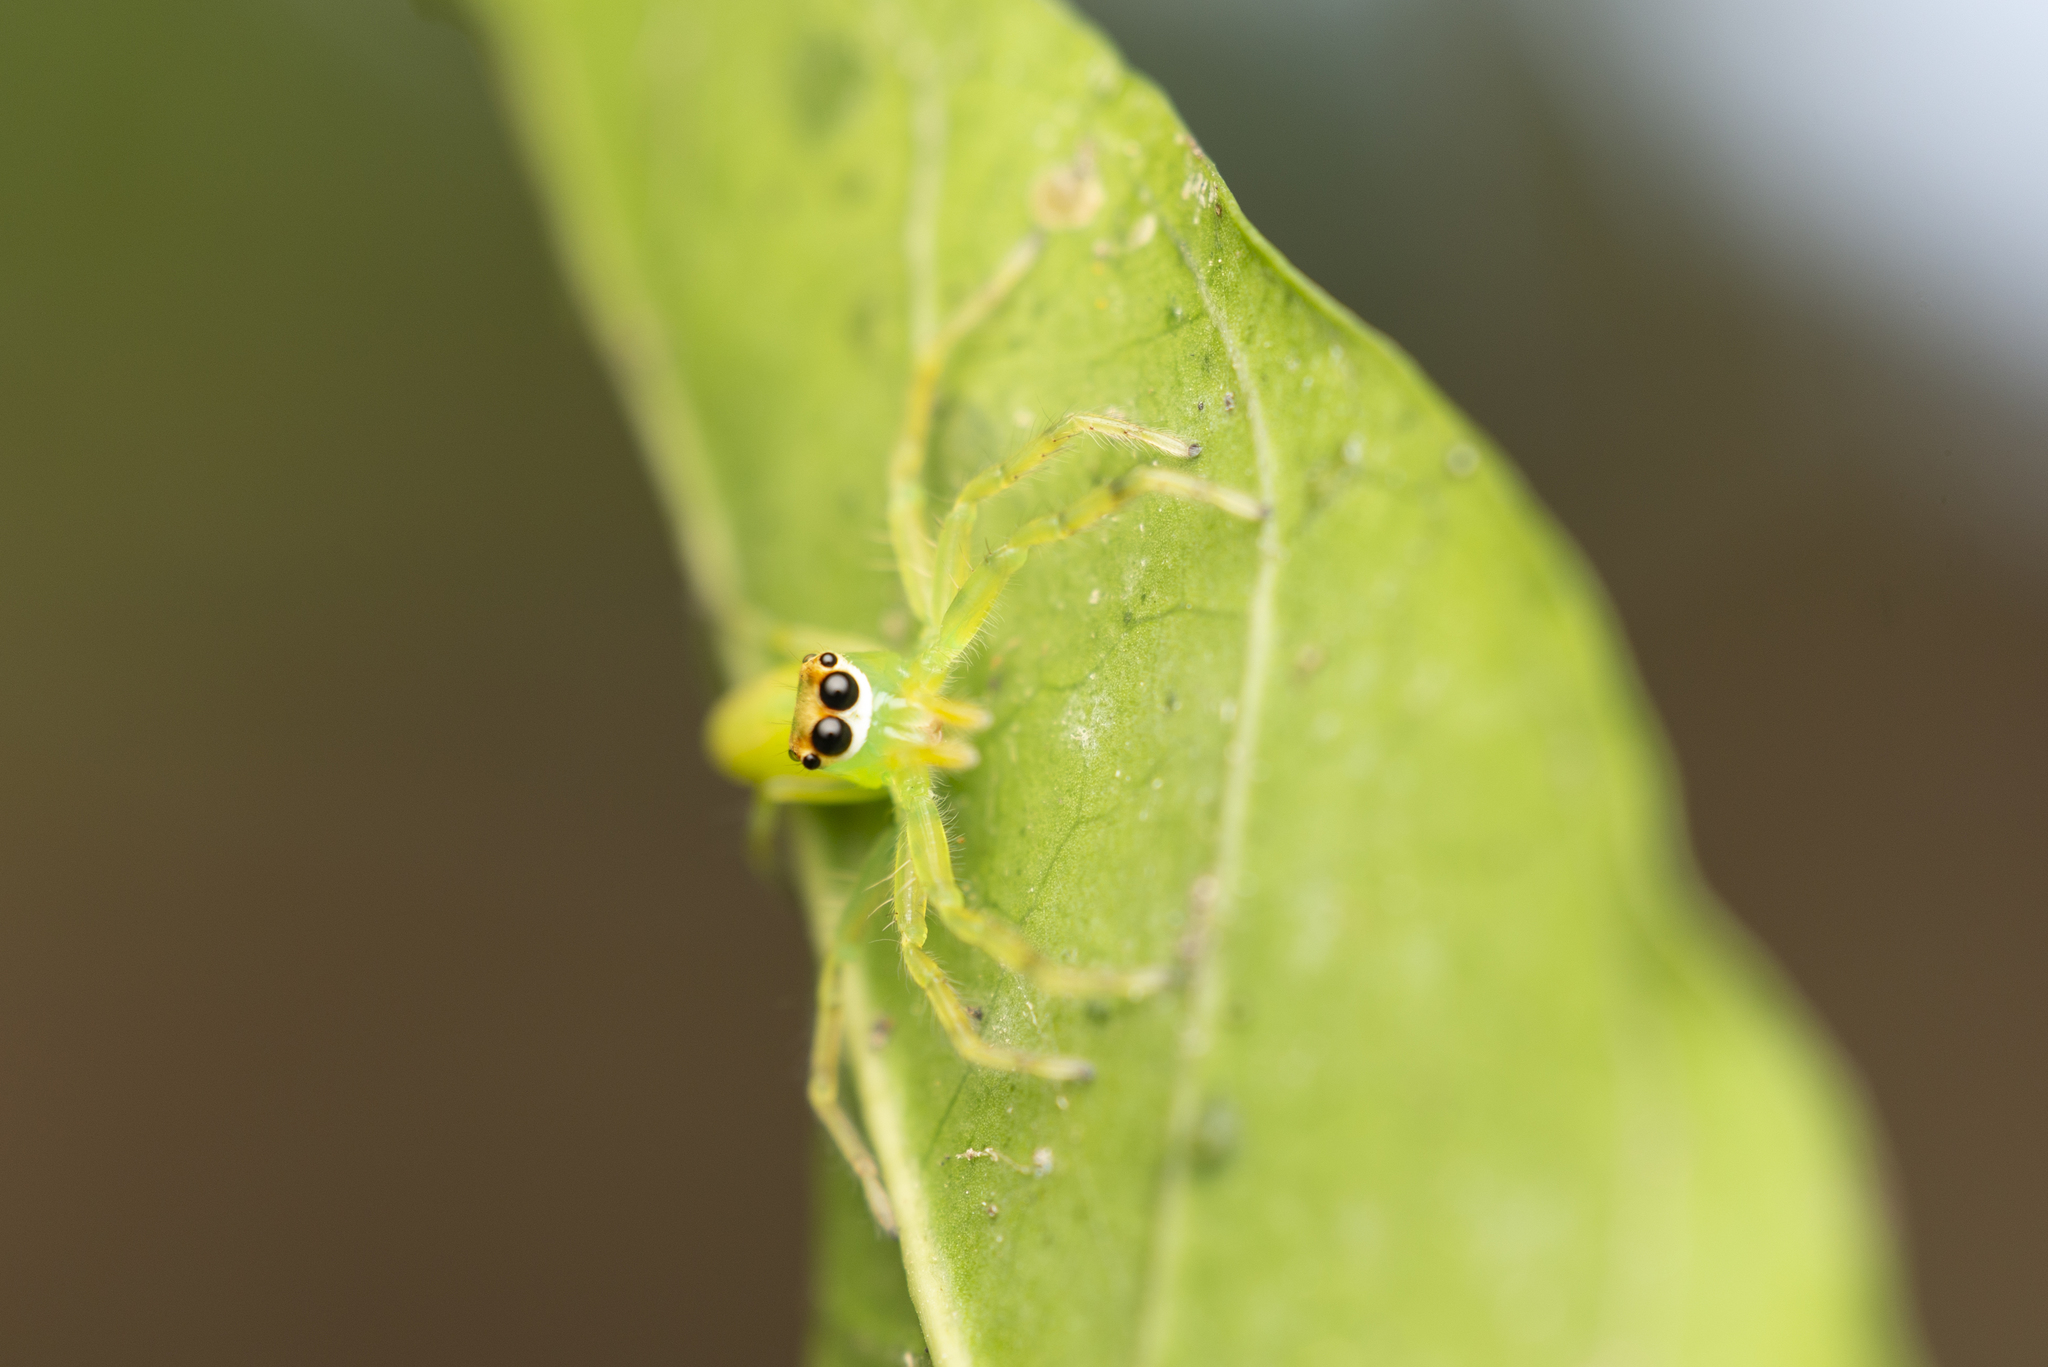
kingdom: Animalia
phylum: Arthropoda
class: Arachnida
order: Araneae
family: Salticidae
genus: Epeus
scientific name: Epeus glorius
